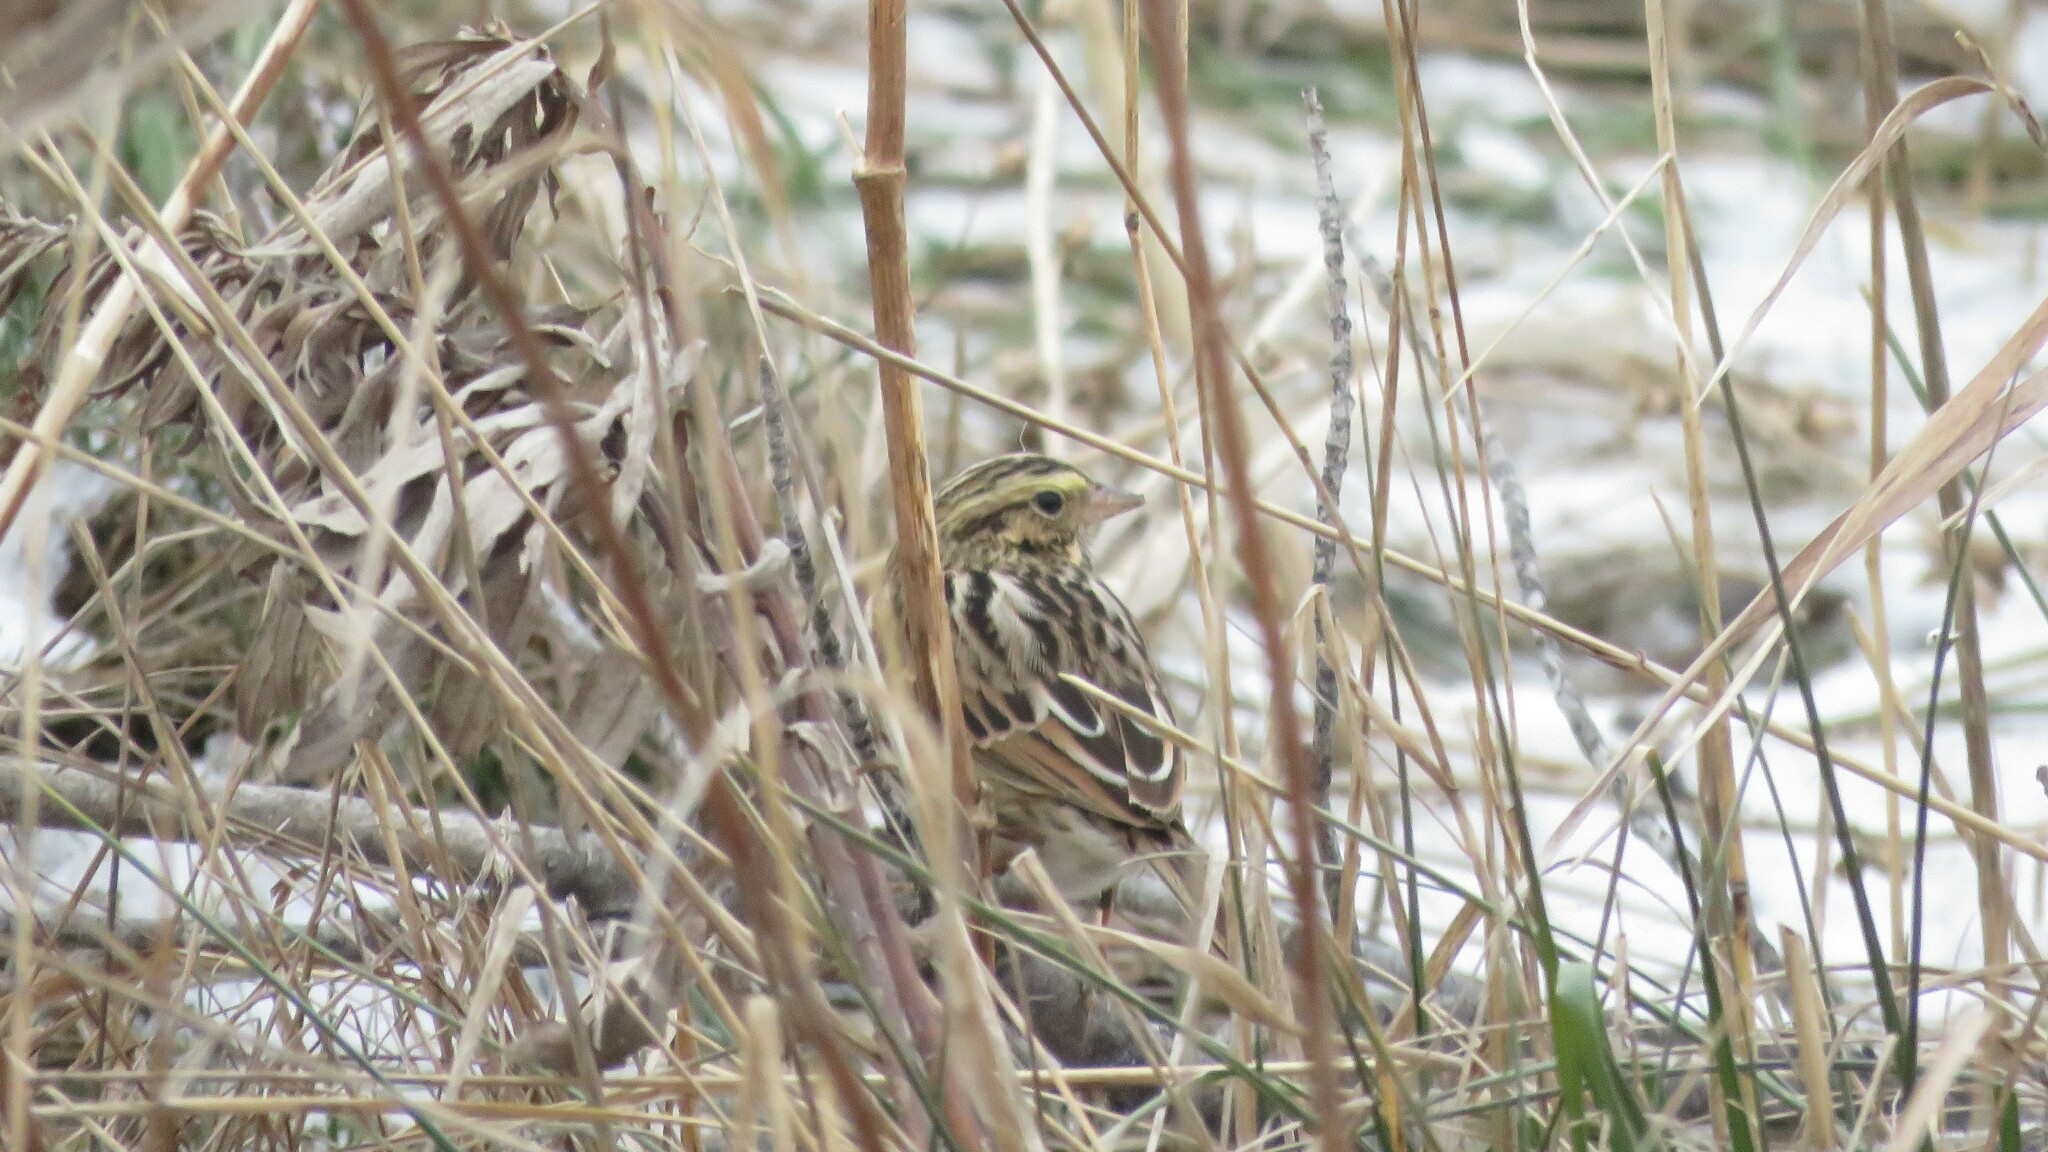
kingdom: Animalia
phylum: Chordata
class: Aves
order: Passeriformes
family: Passerellidae
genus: Passerculus
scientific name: Passerculus sandwichensis
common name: Savannah sparrow
